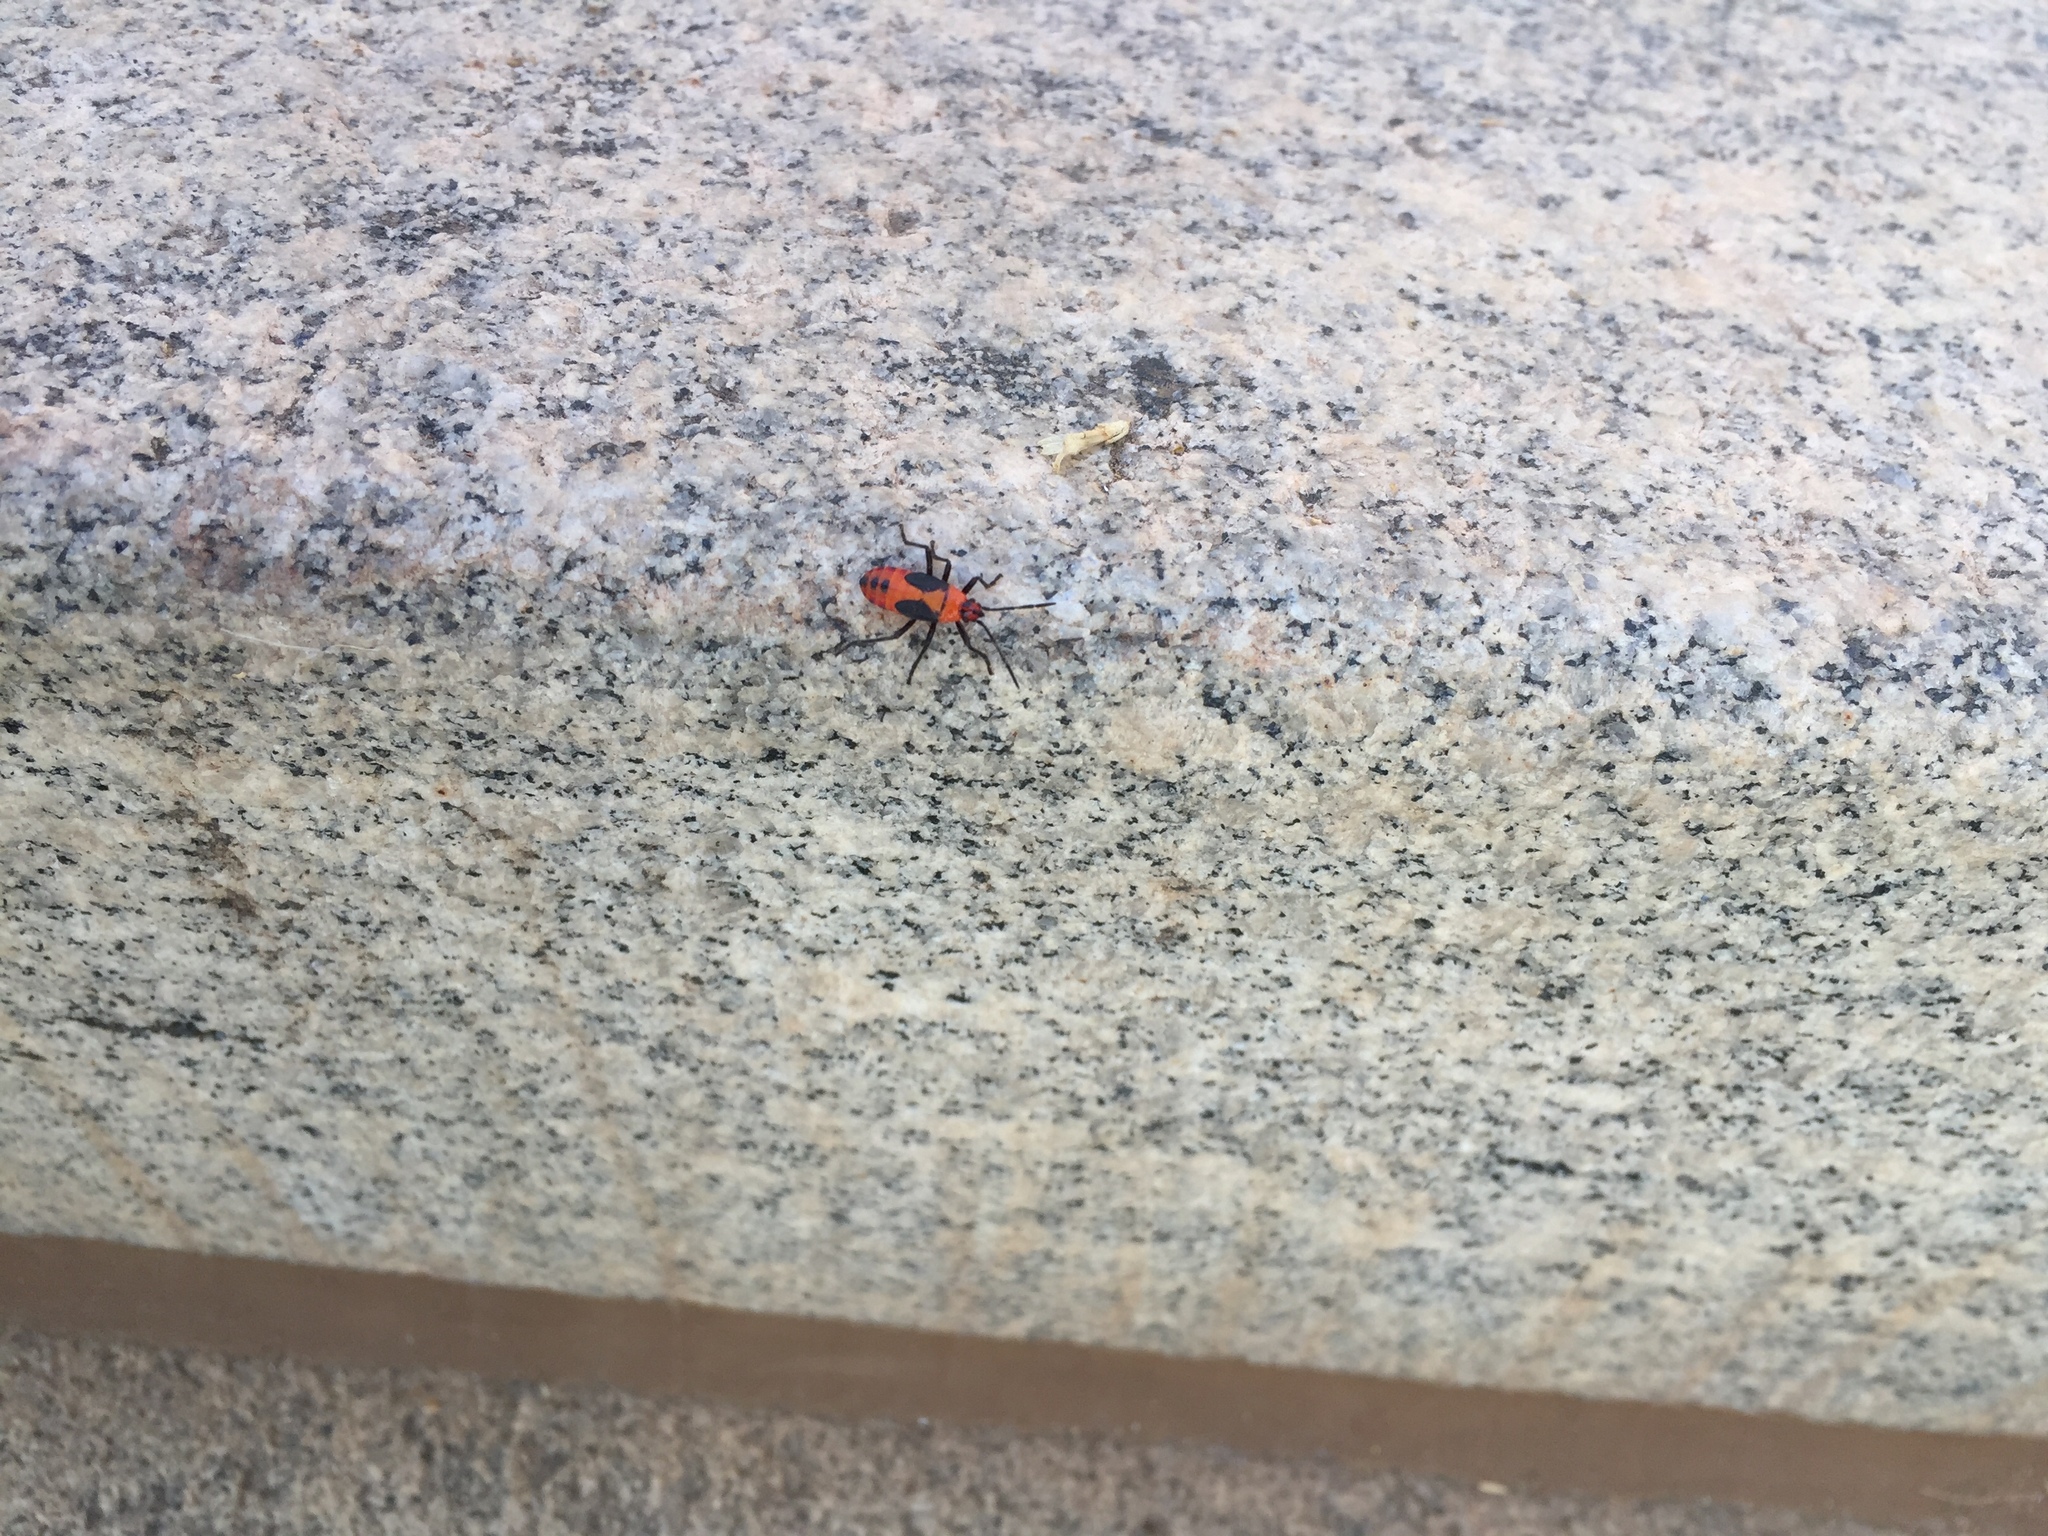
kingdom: Animalia
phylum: Arthropoda
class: Insecta
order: Hemiptera
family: Lygaeidae
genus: Oncopeltus
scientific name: Oncopeltus fasciatus
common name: Large milkweed bug
